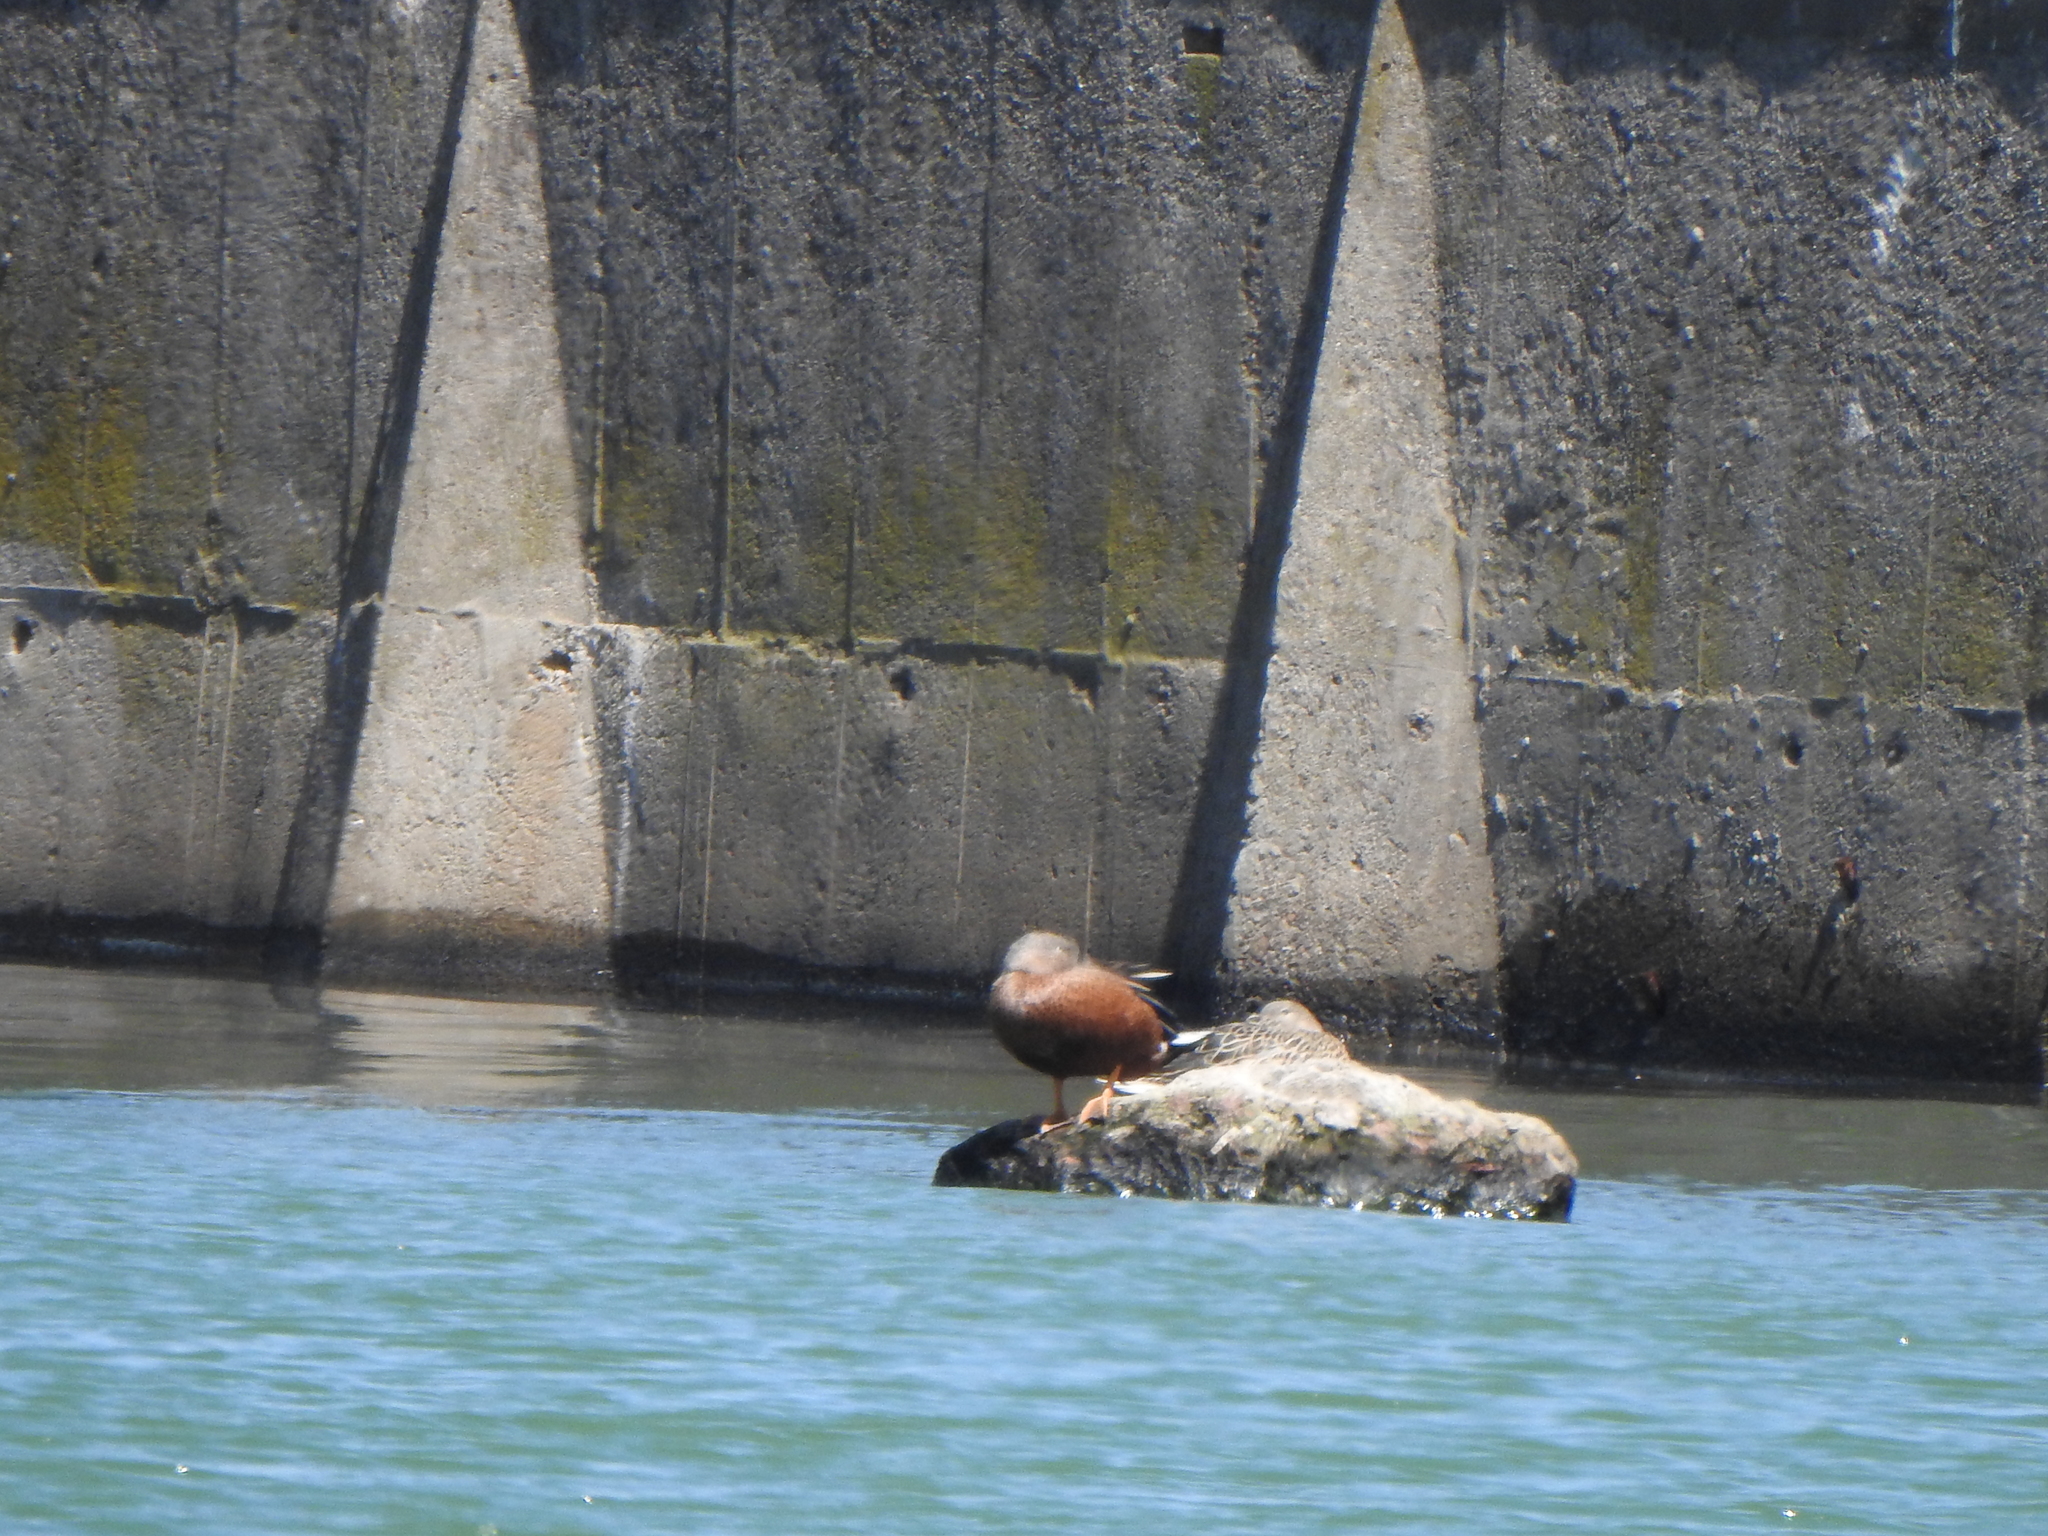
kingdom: Animalia
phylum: Chordata
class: Aves
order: Anseriformes
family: Anatidae
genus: Spatula
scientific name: Spatula platalea
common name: Red shoveler
